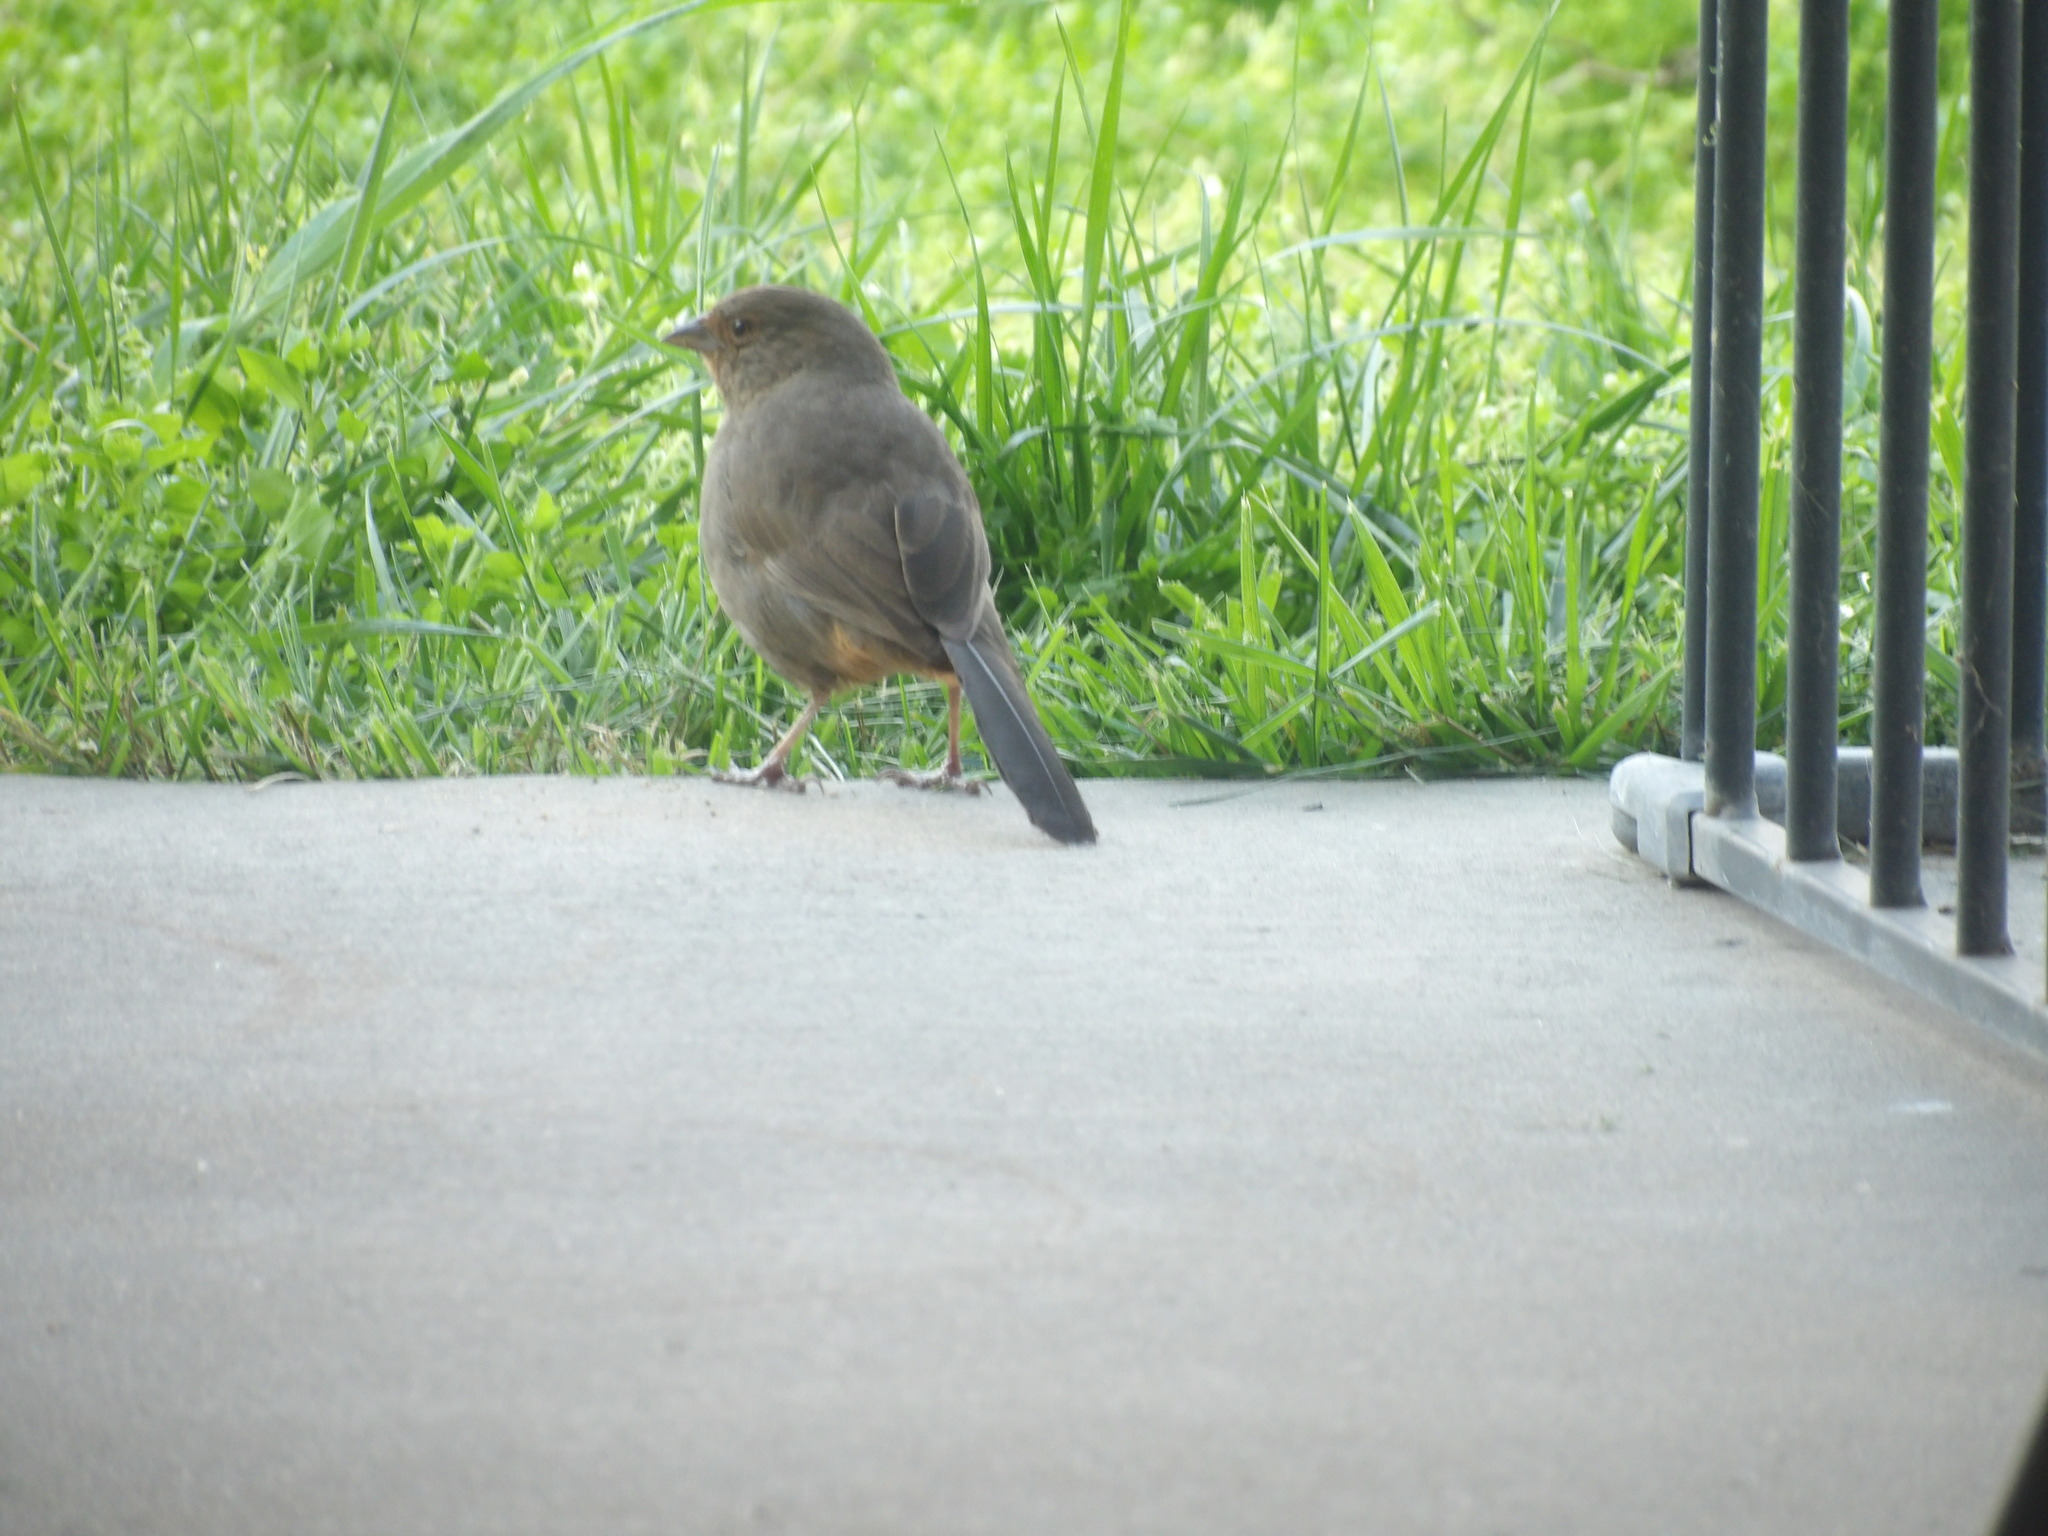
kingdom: Animalia
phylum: Chordata
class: Aves
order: Passeriformes
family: Passerellidae
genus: Melozone
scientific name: Melozone crissalis
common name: California towhee
